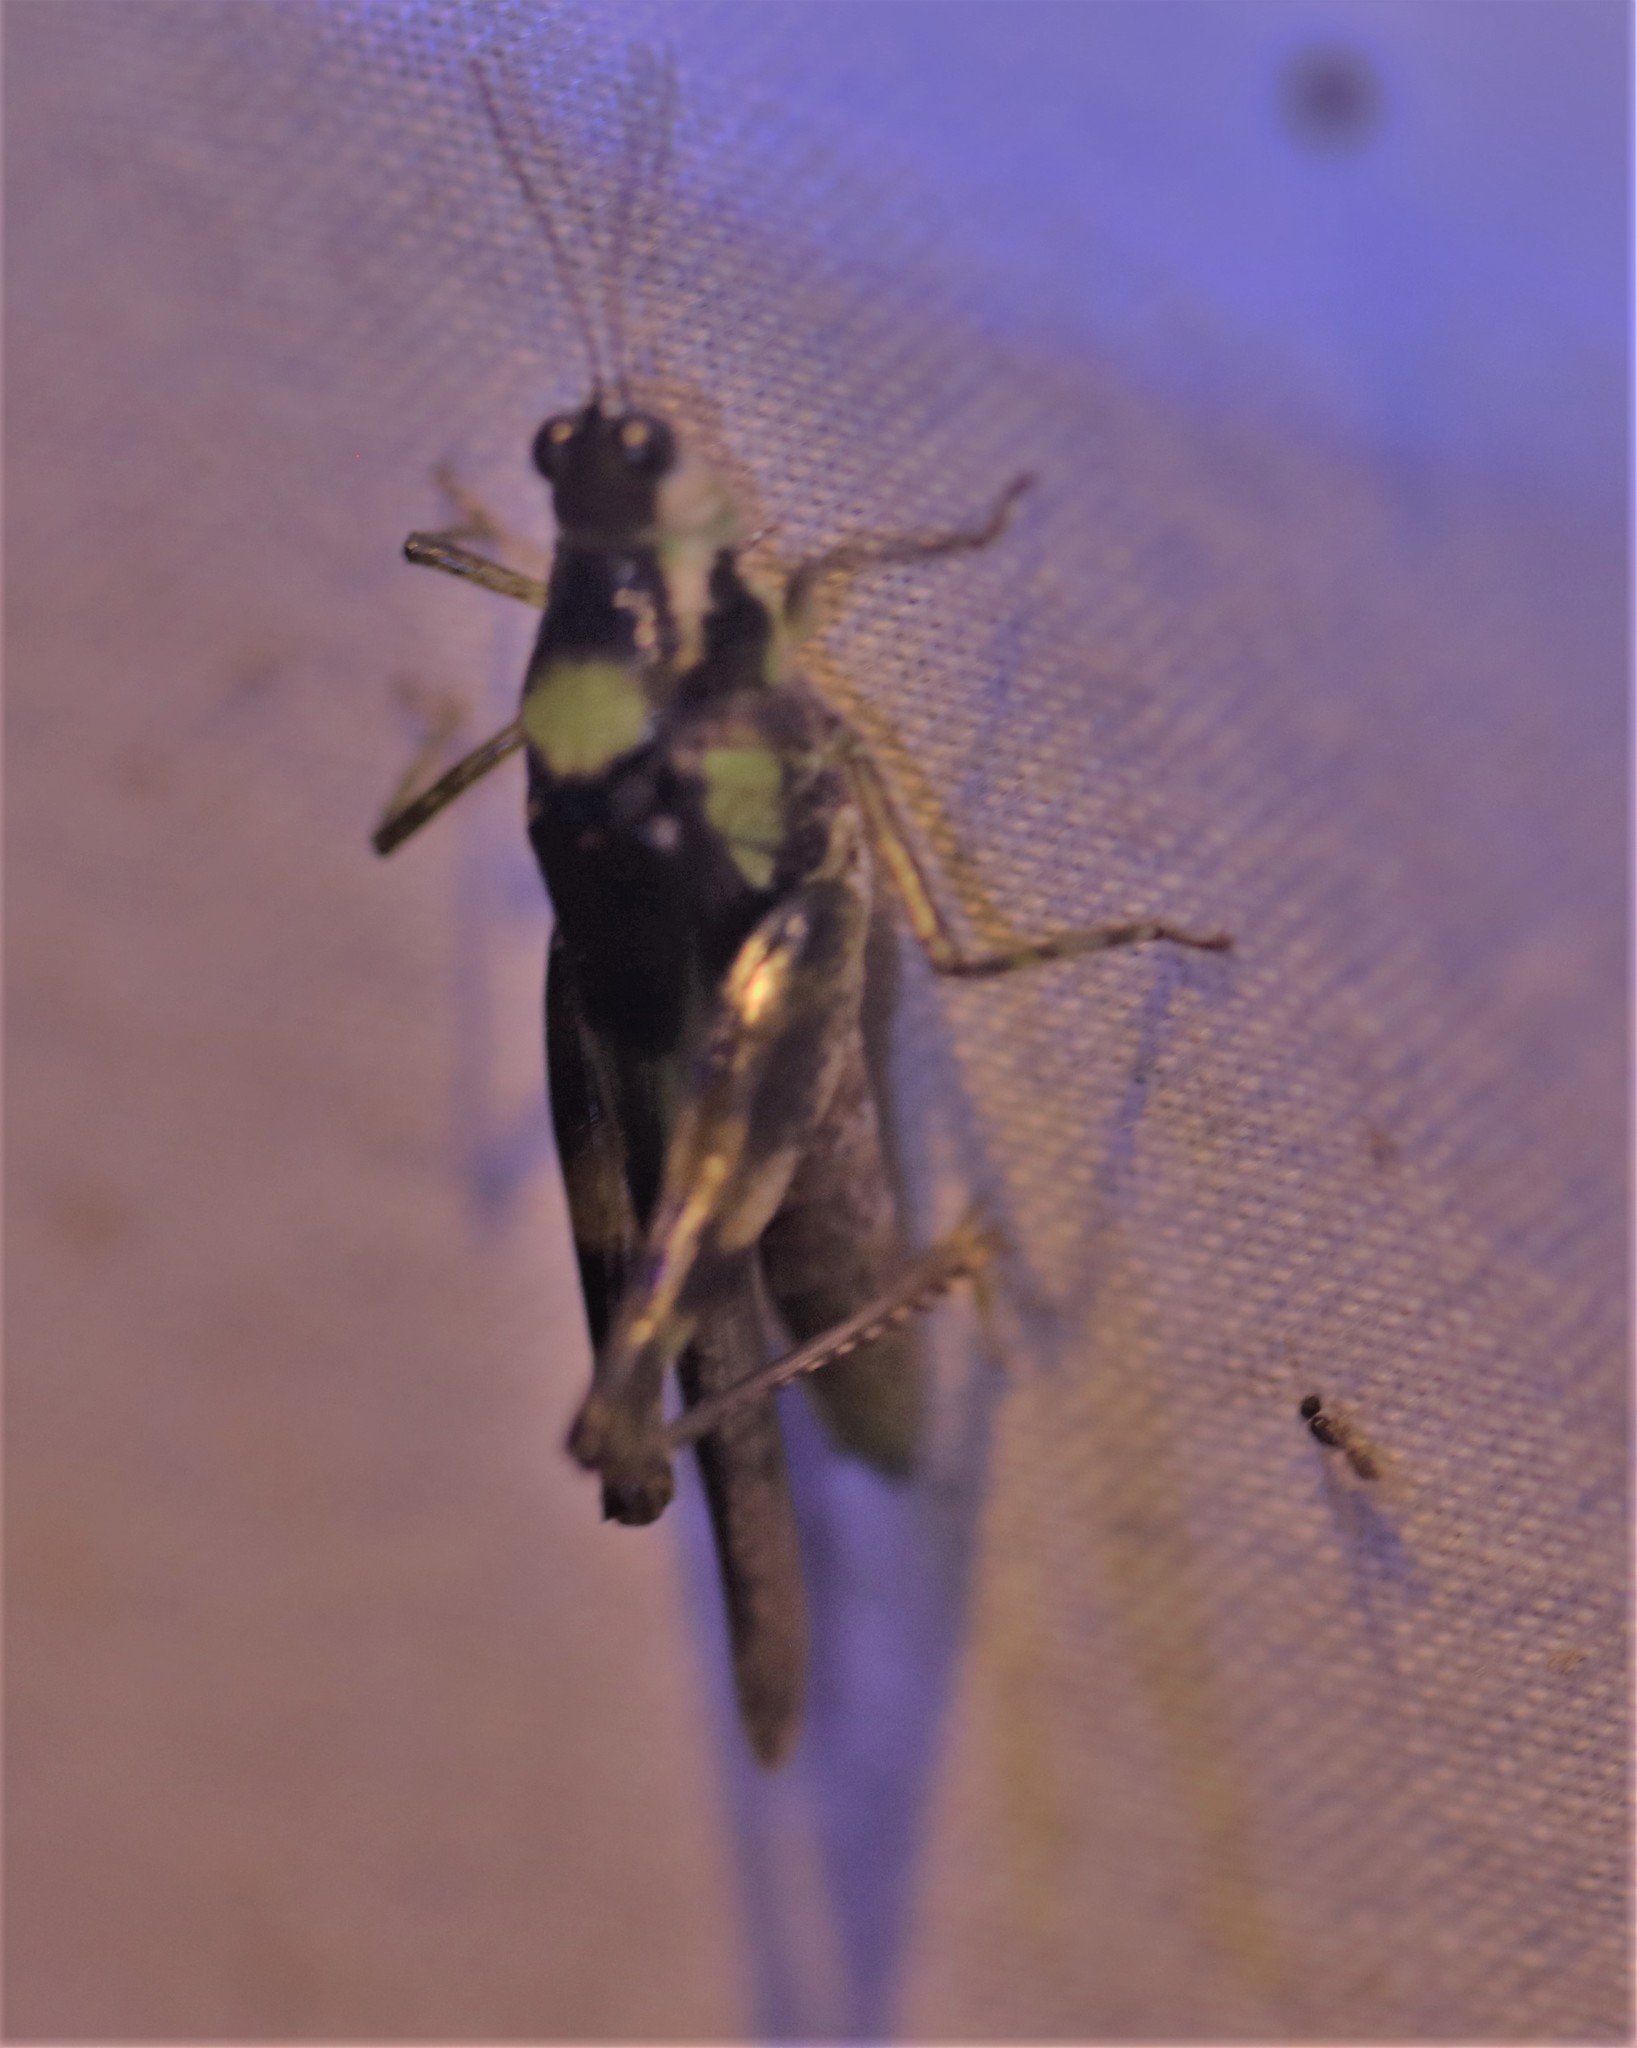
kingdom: Animalia
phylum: Arthropoda
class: Insecta
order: Orthoptera
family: Acrididae
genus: Paulinia
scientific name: Paulinia acuminata
